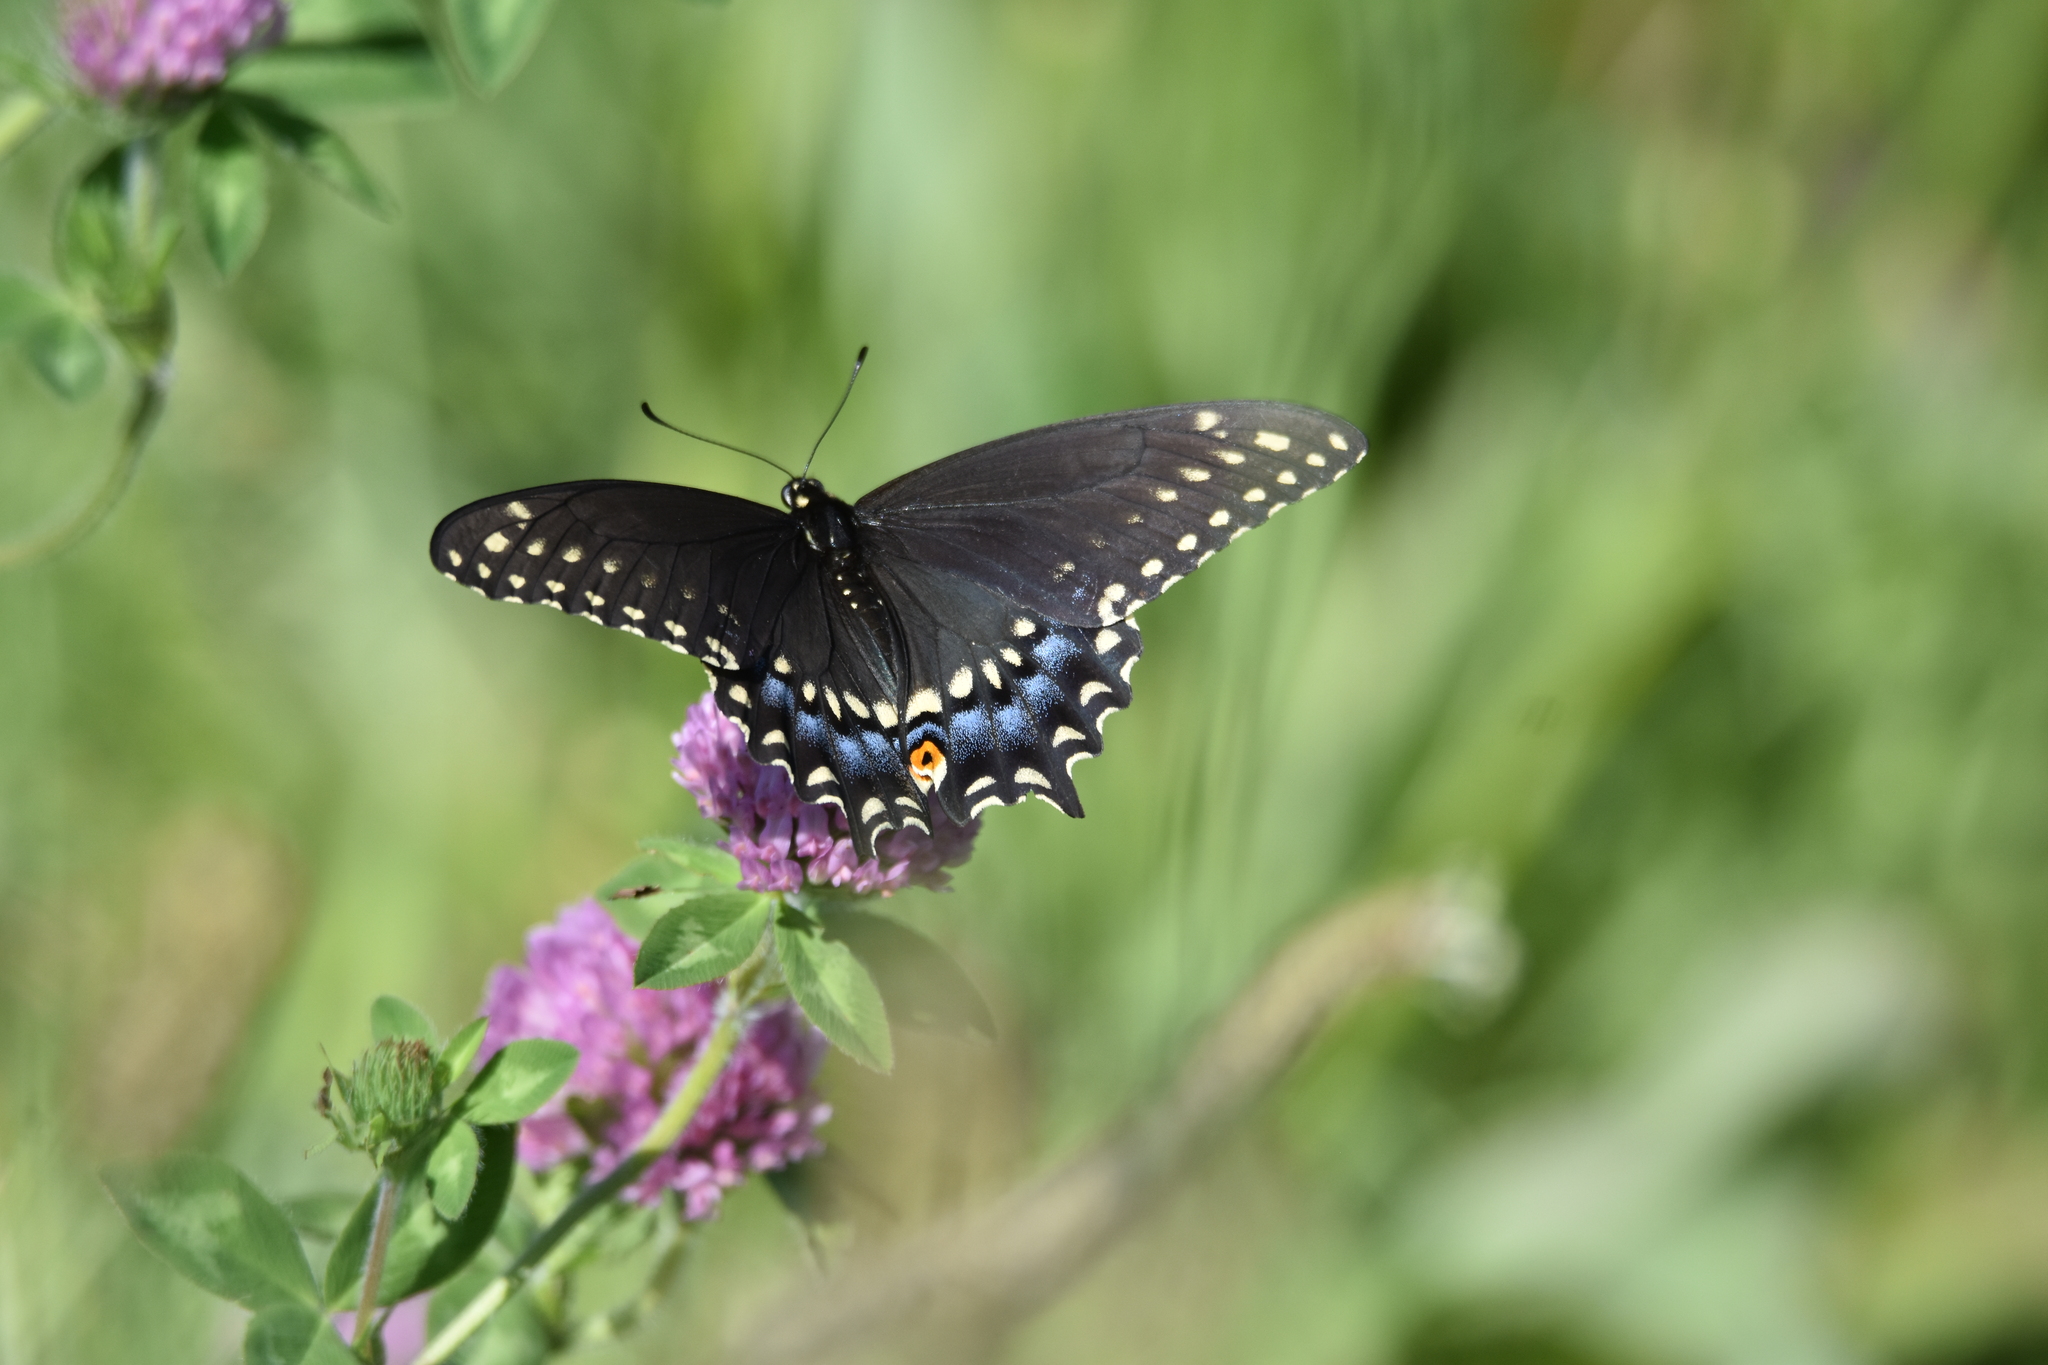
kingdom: Animalia
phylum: Arthropoda
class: Insecta
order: Lepidoptera
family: Papilionidae
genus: Papilio
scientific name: Papilio polyxenes
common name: Black swallowtail
